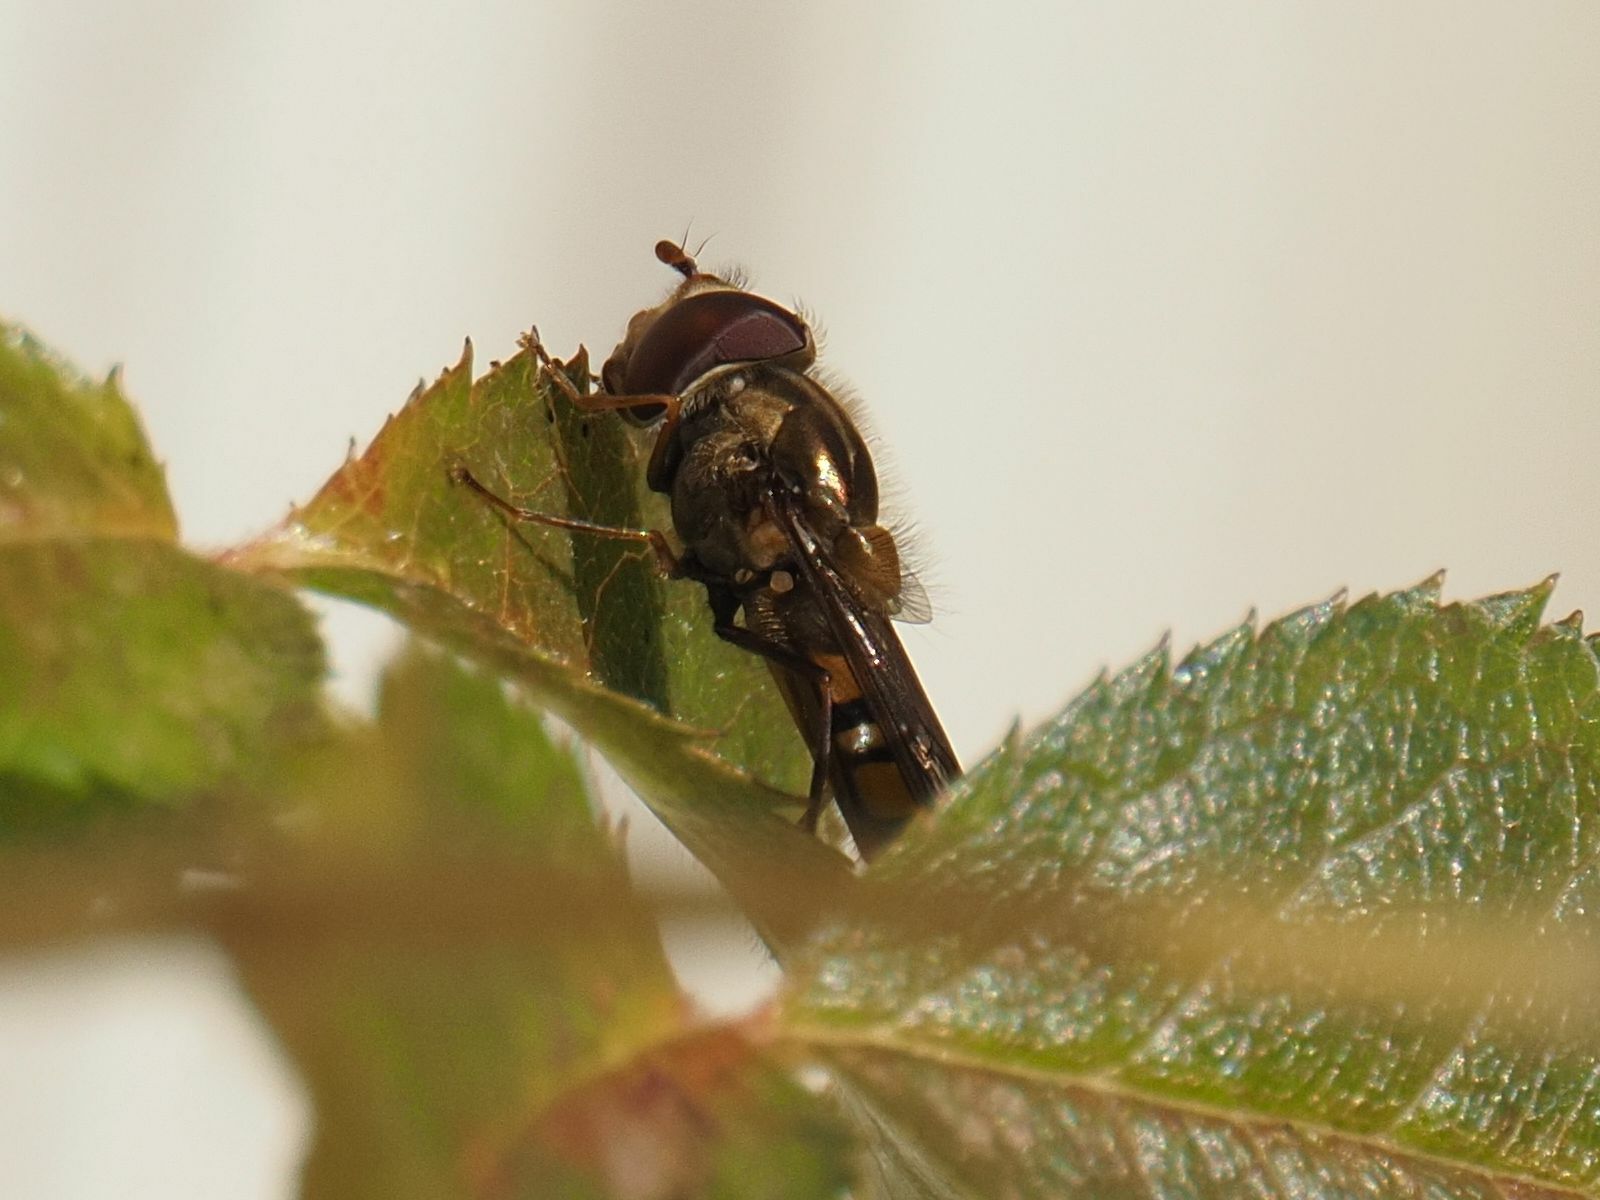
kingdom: Animalia
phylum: Arthropoda
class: Insecta
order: Diptera
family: Syrphidae
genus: Episyrphus
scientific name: Episyrphus balteatus
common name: Marmalade hoverfly
